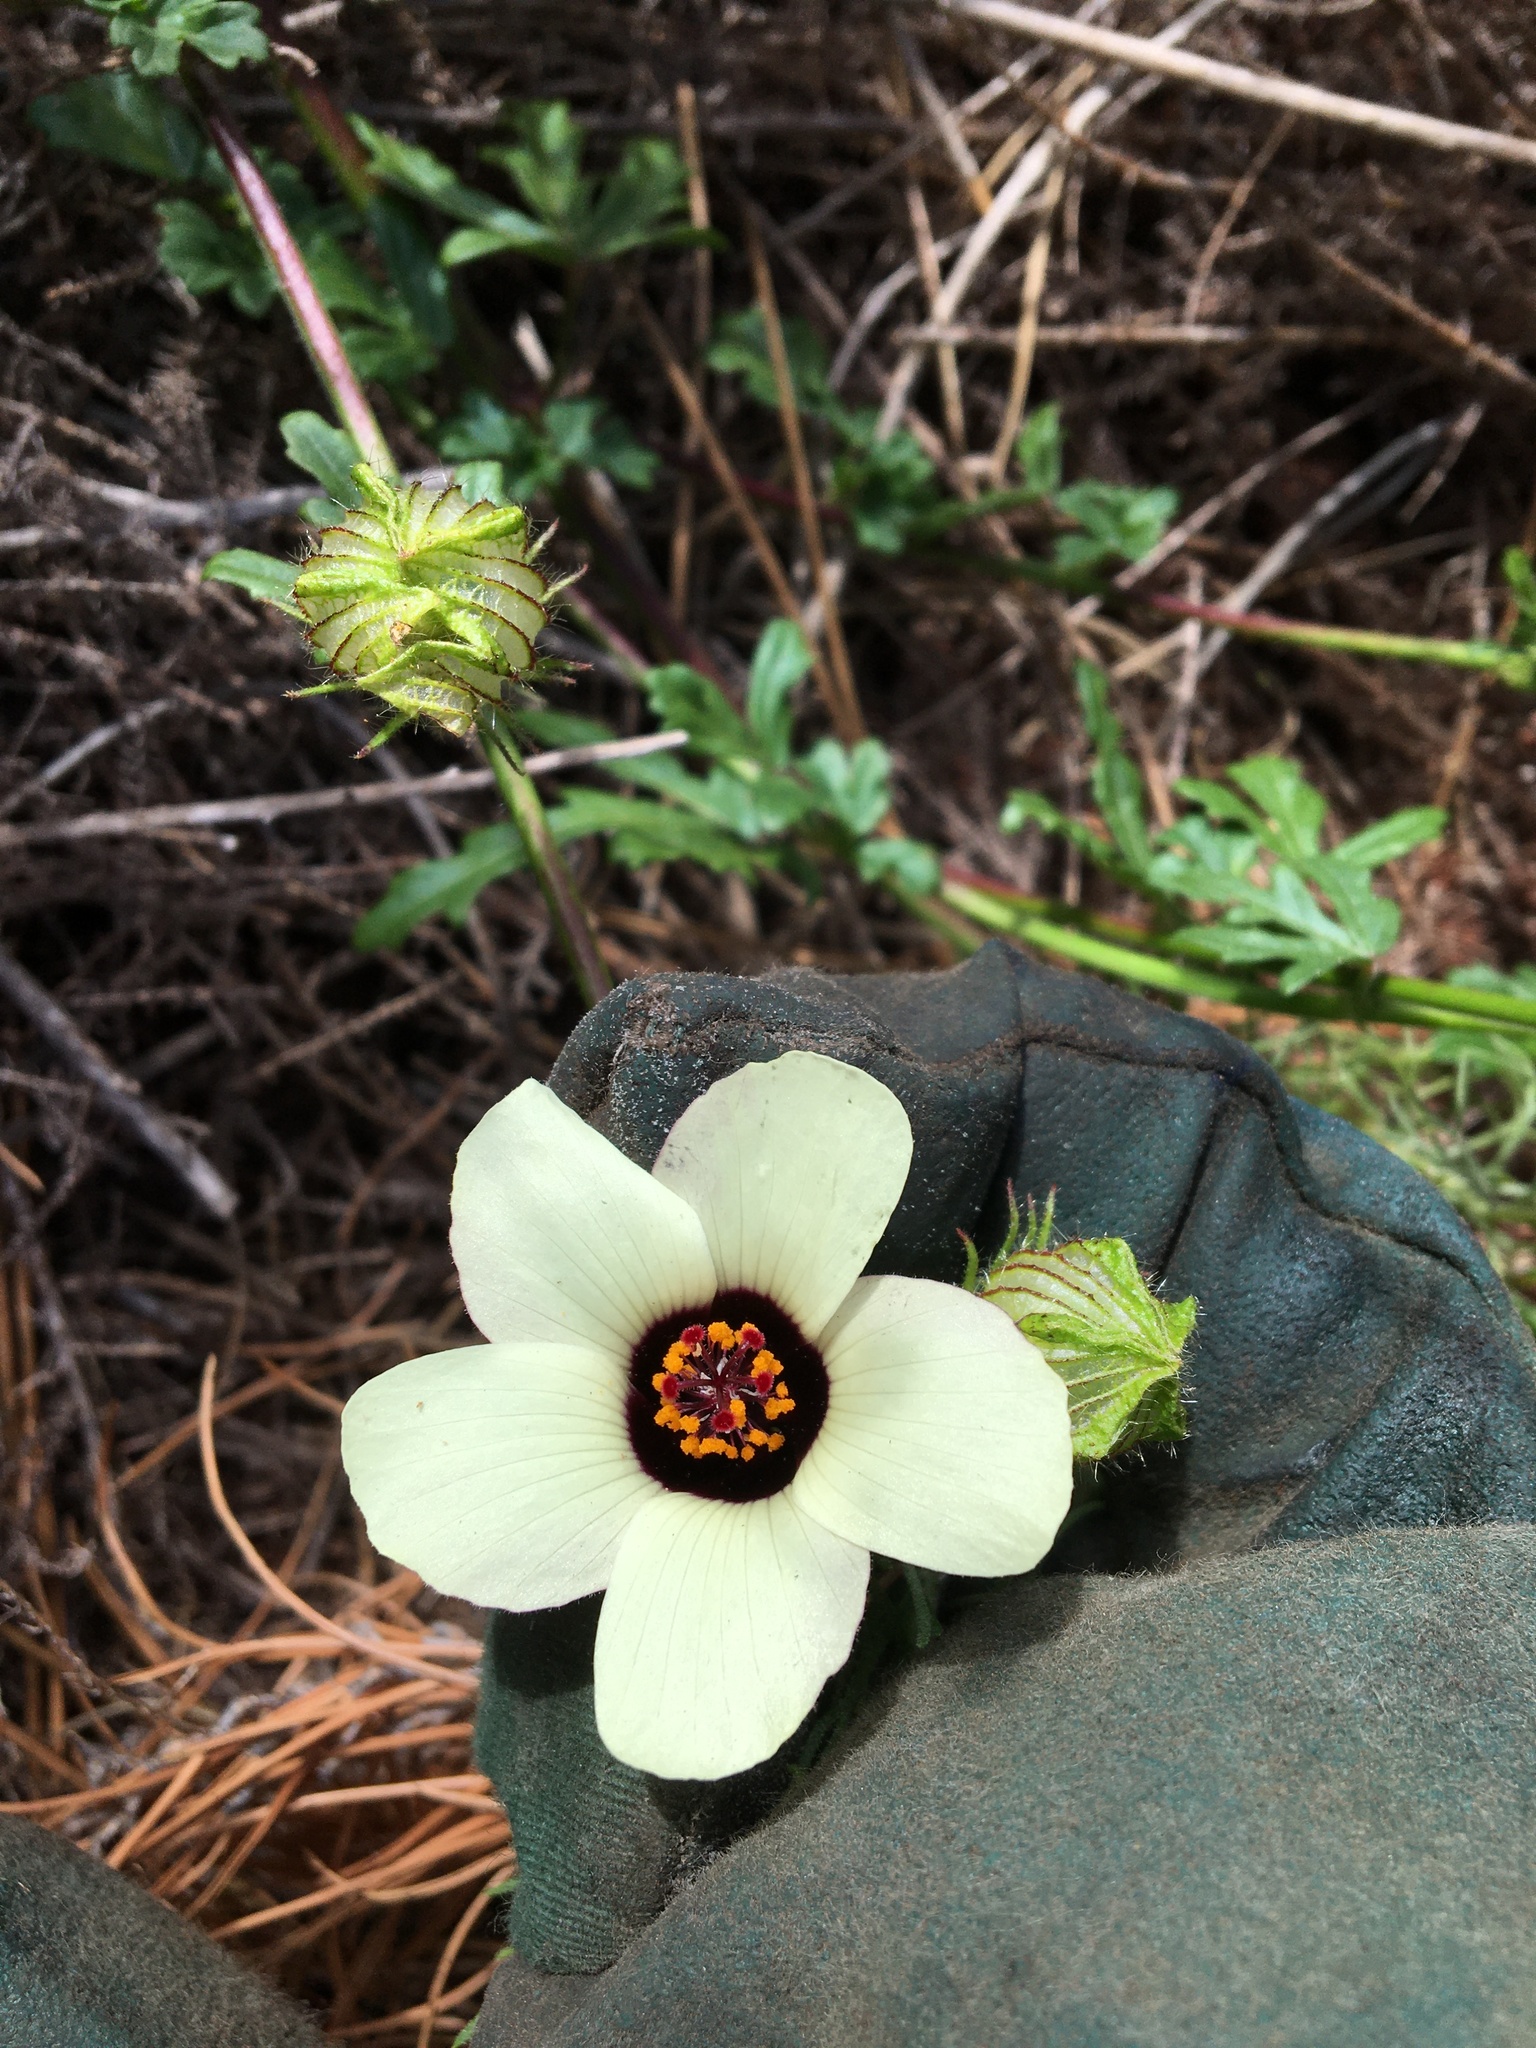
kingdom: Plantae
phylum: Tracheophyta
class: Magnoliopsida
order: Malvales
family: Malvaceae
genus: Hibiscus
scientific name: Hibiscus trionum
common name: Bladder ketmia
